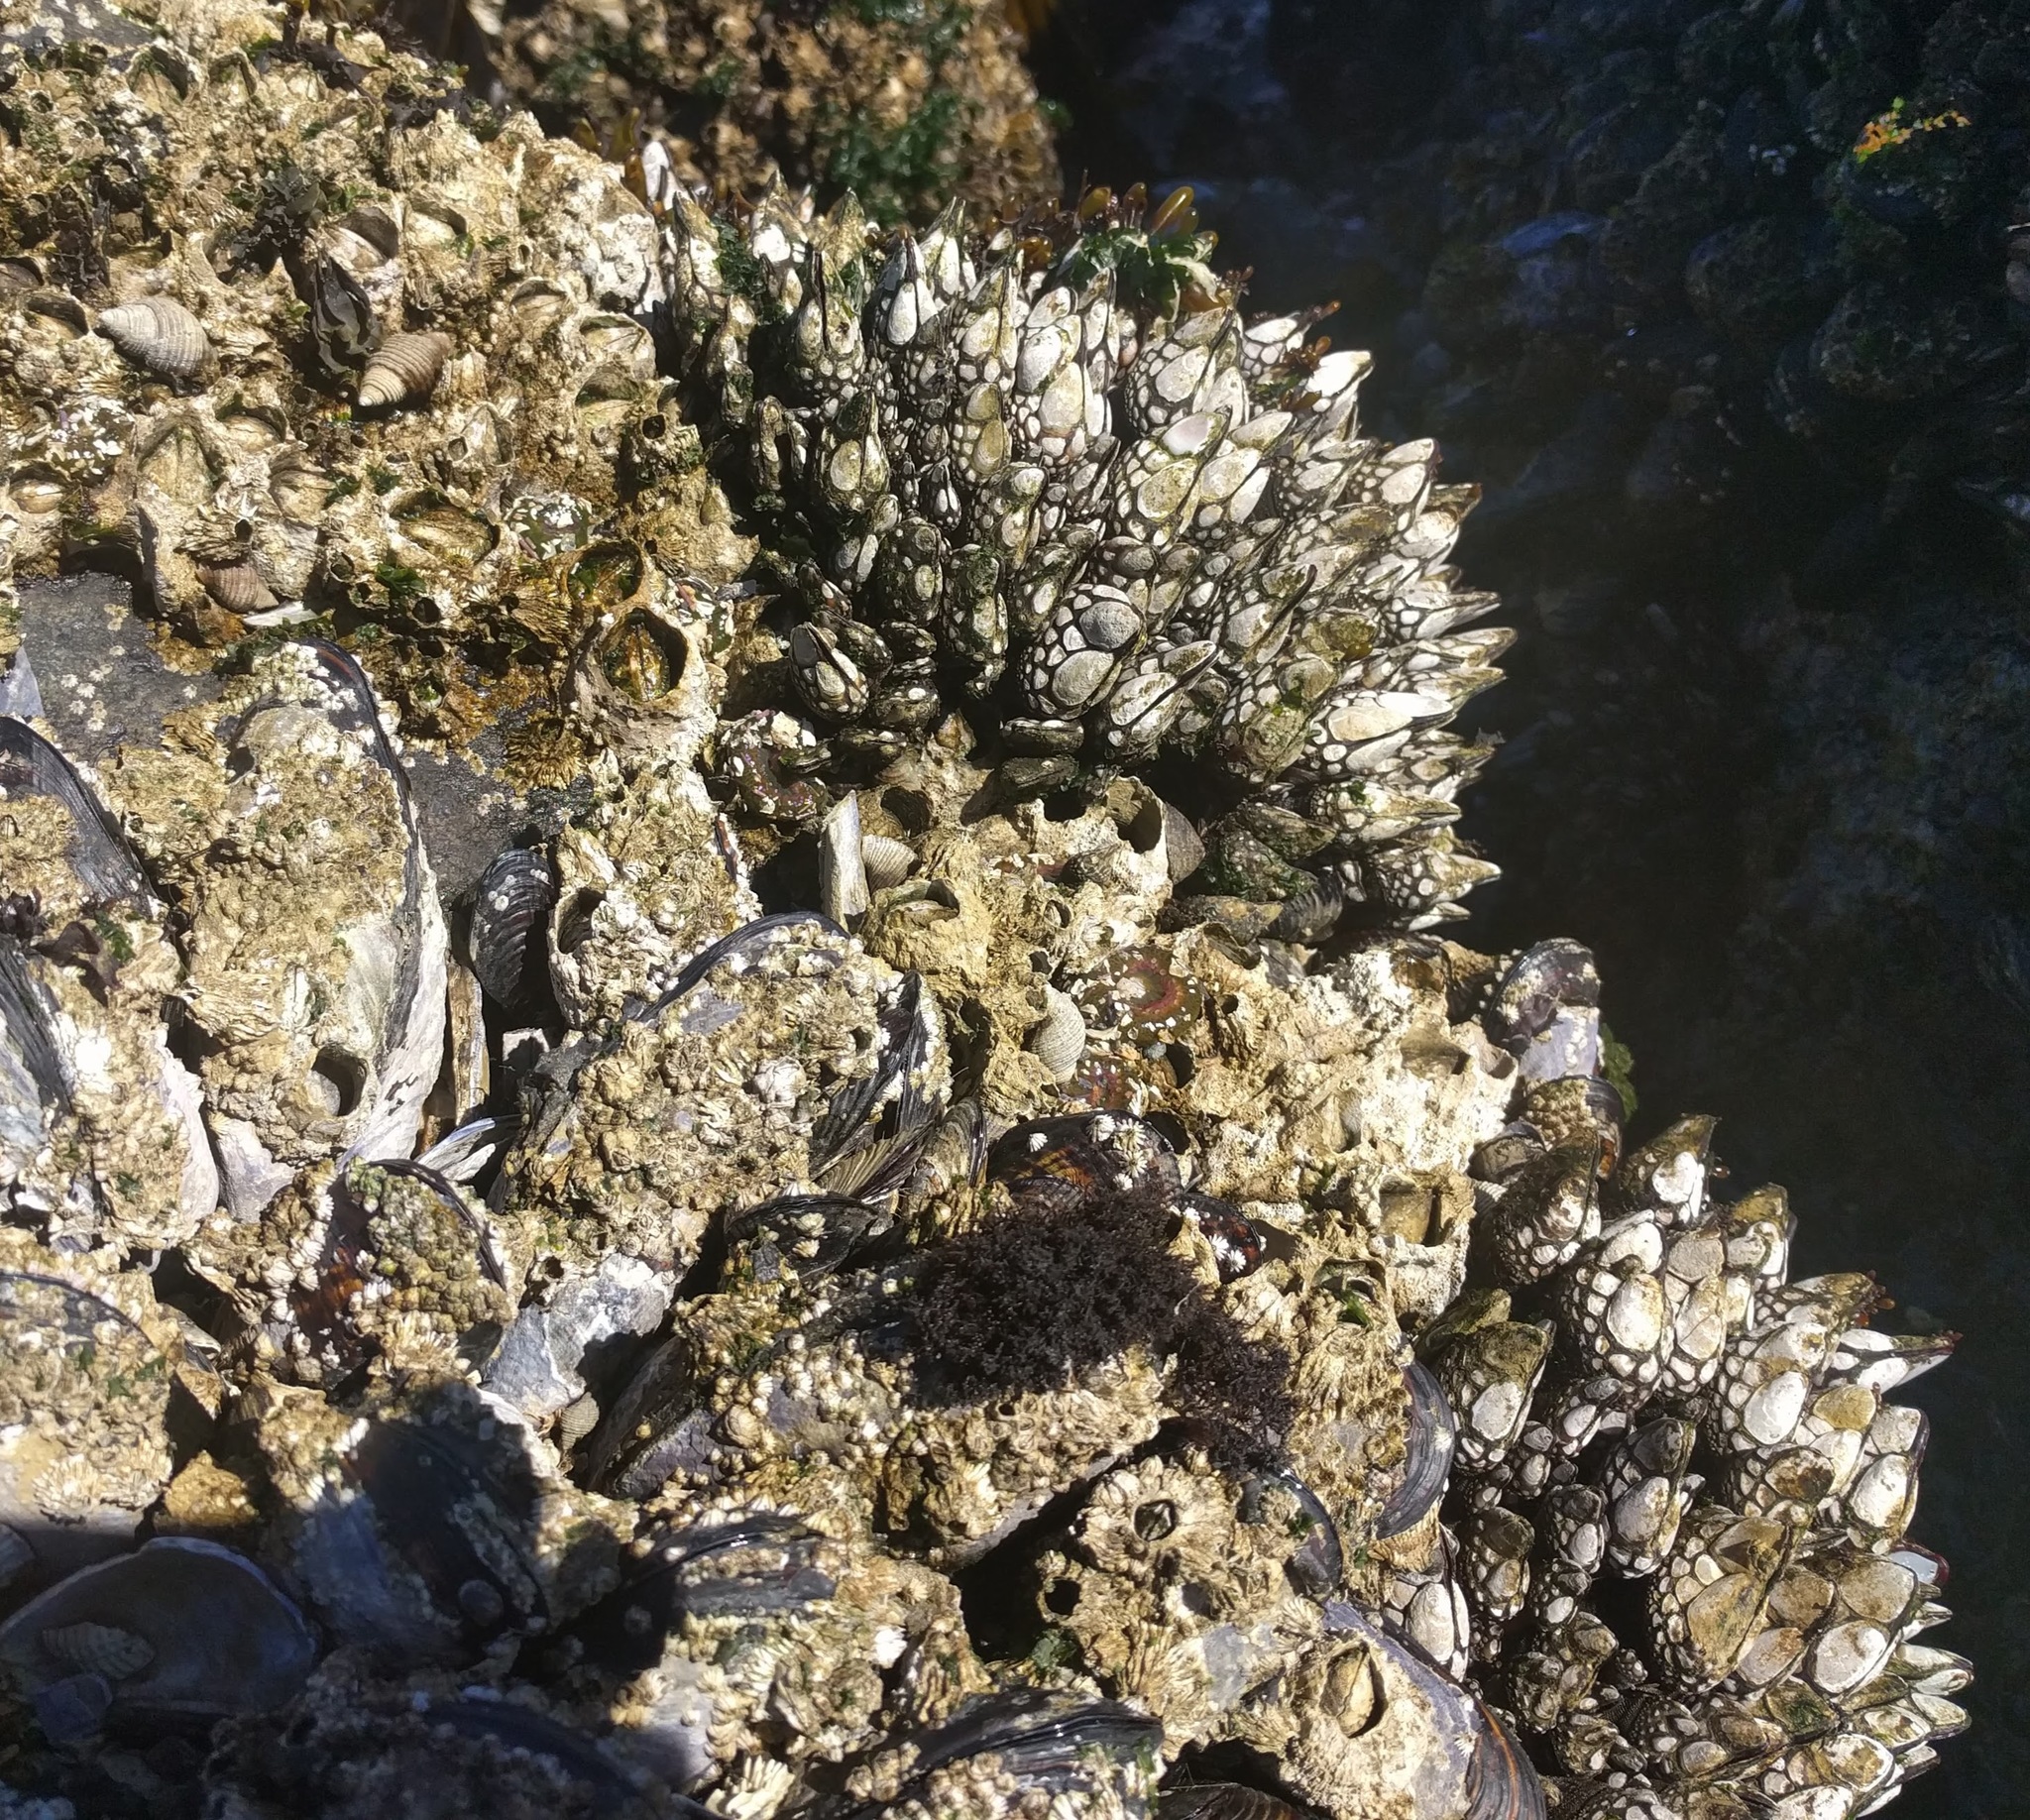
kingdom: Animalia
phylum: Arthropoda
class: Maxillopoda
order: Pedunculata
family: Pollicipedidae
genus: Pollicipes
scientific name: Pollicipes polymerus
